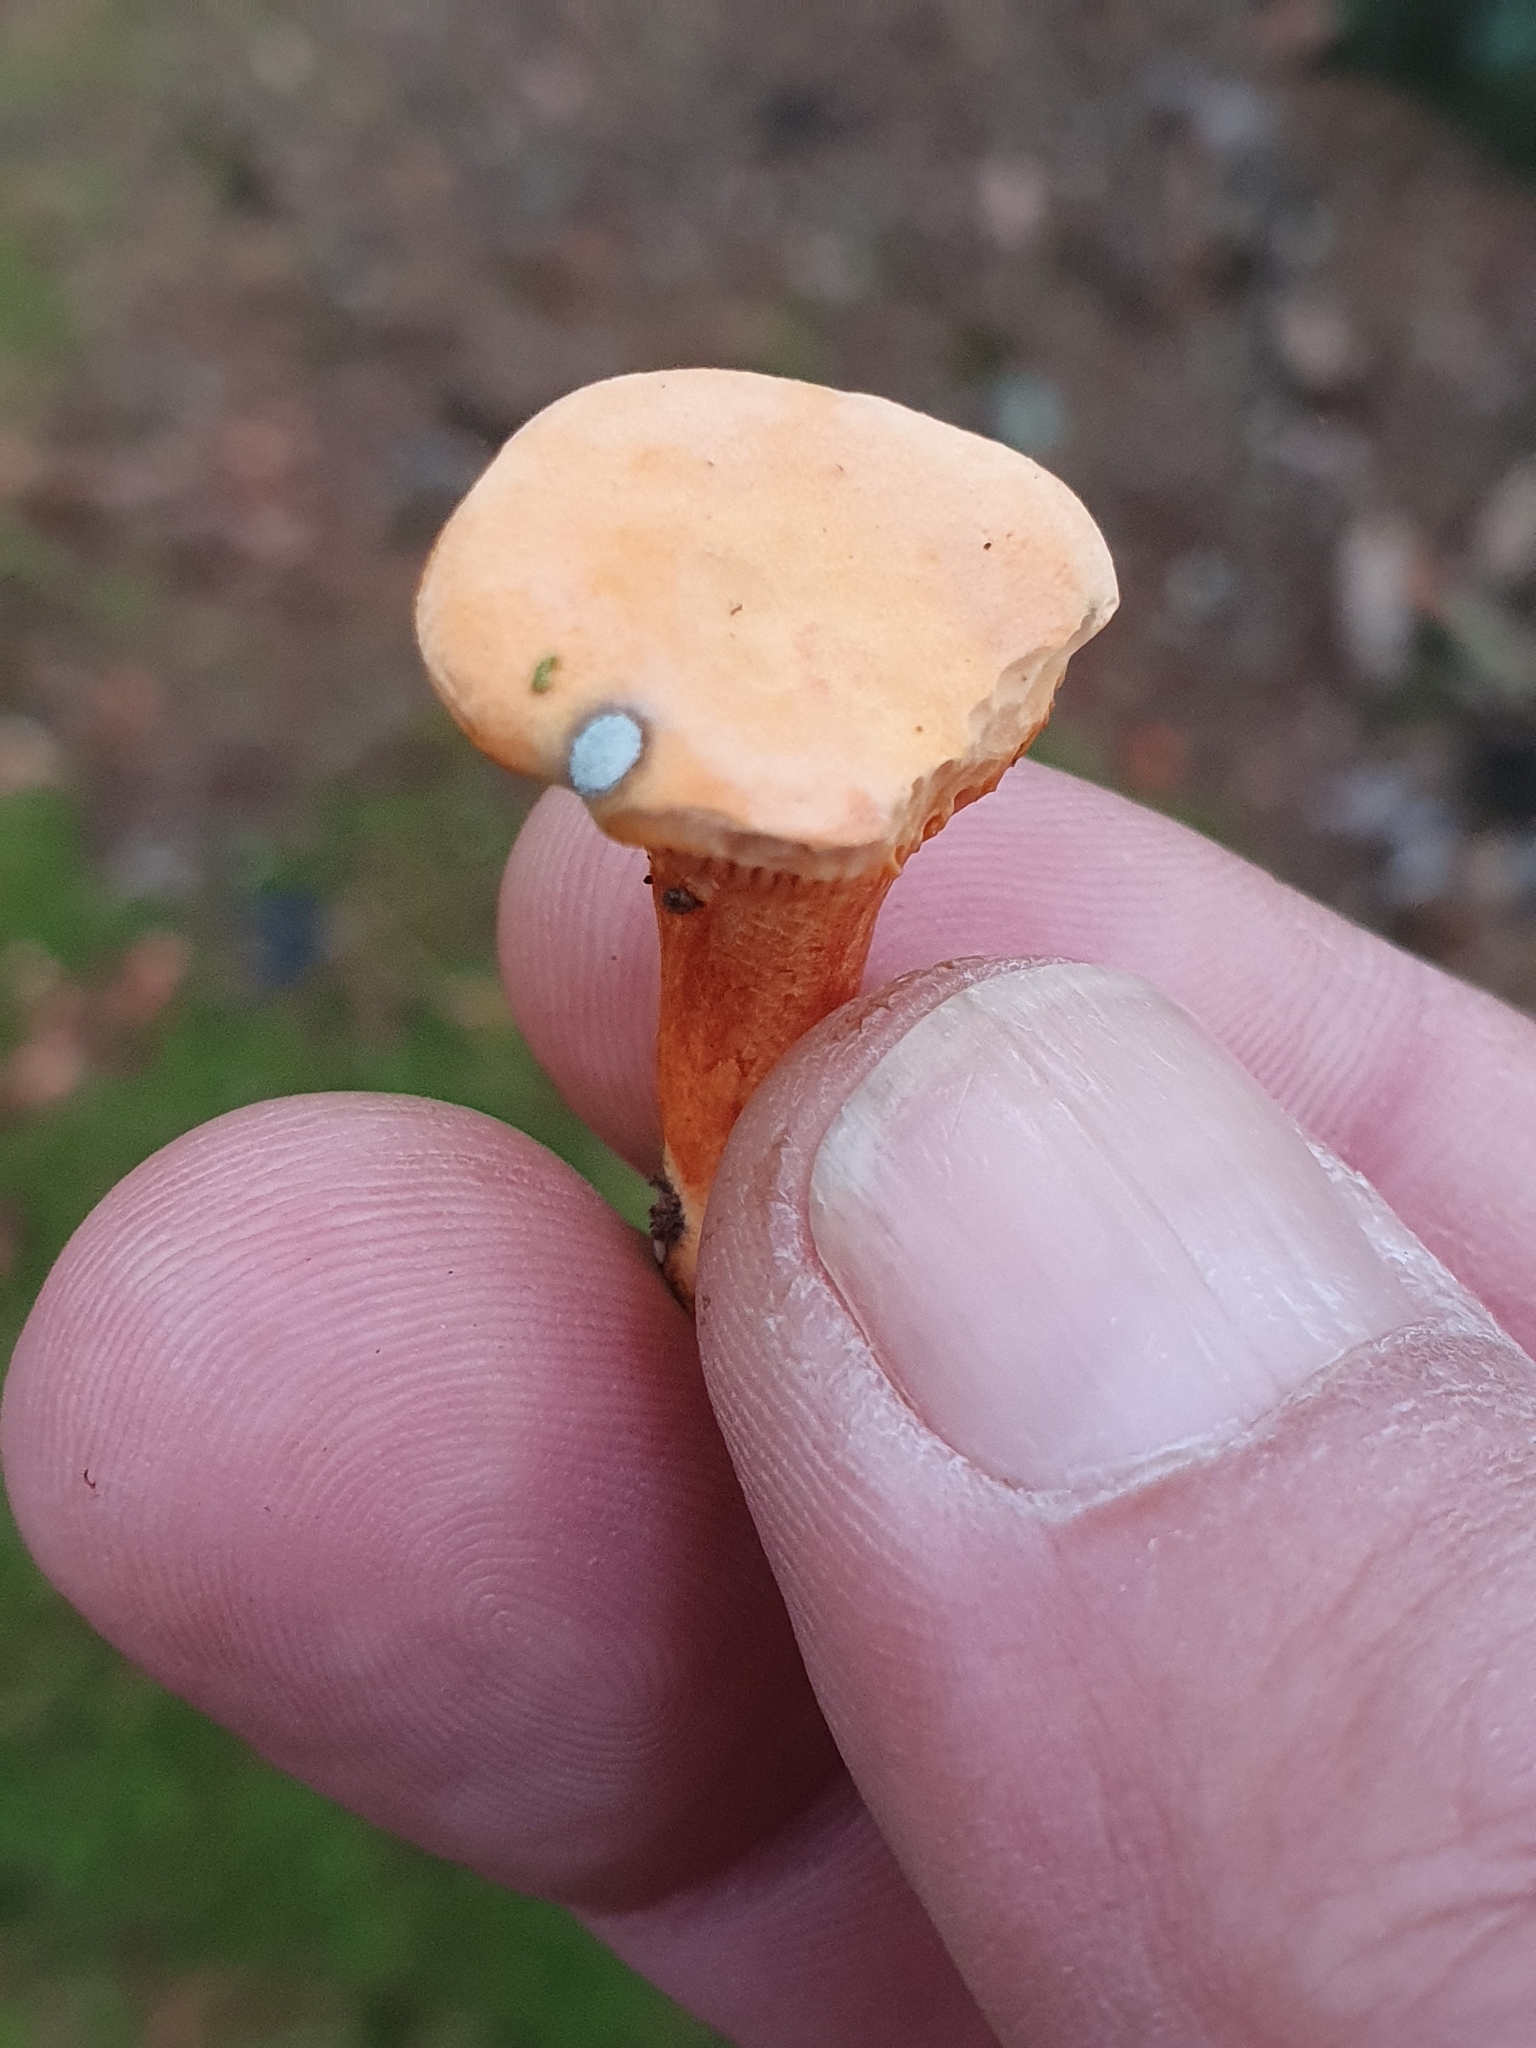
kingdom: Fungi
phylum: Basidiomycota
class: Agaricomycetes
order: Boletales
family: Hygrophoropsidaceae
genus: Hygrophoropsis
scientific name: Hygrophoropsis aurantiaca
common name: False chanterelle
